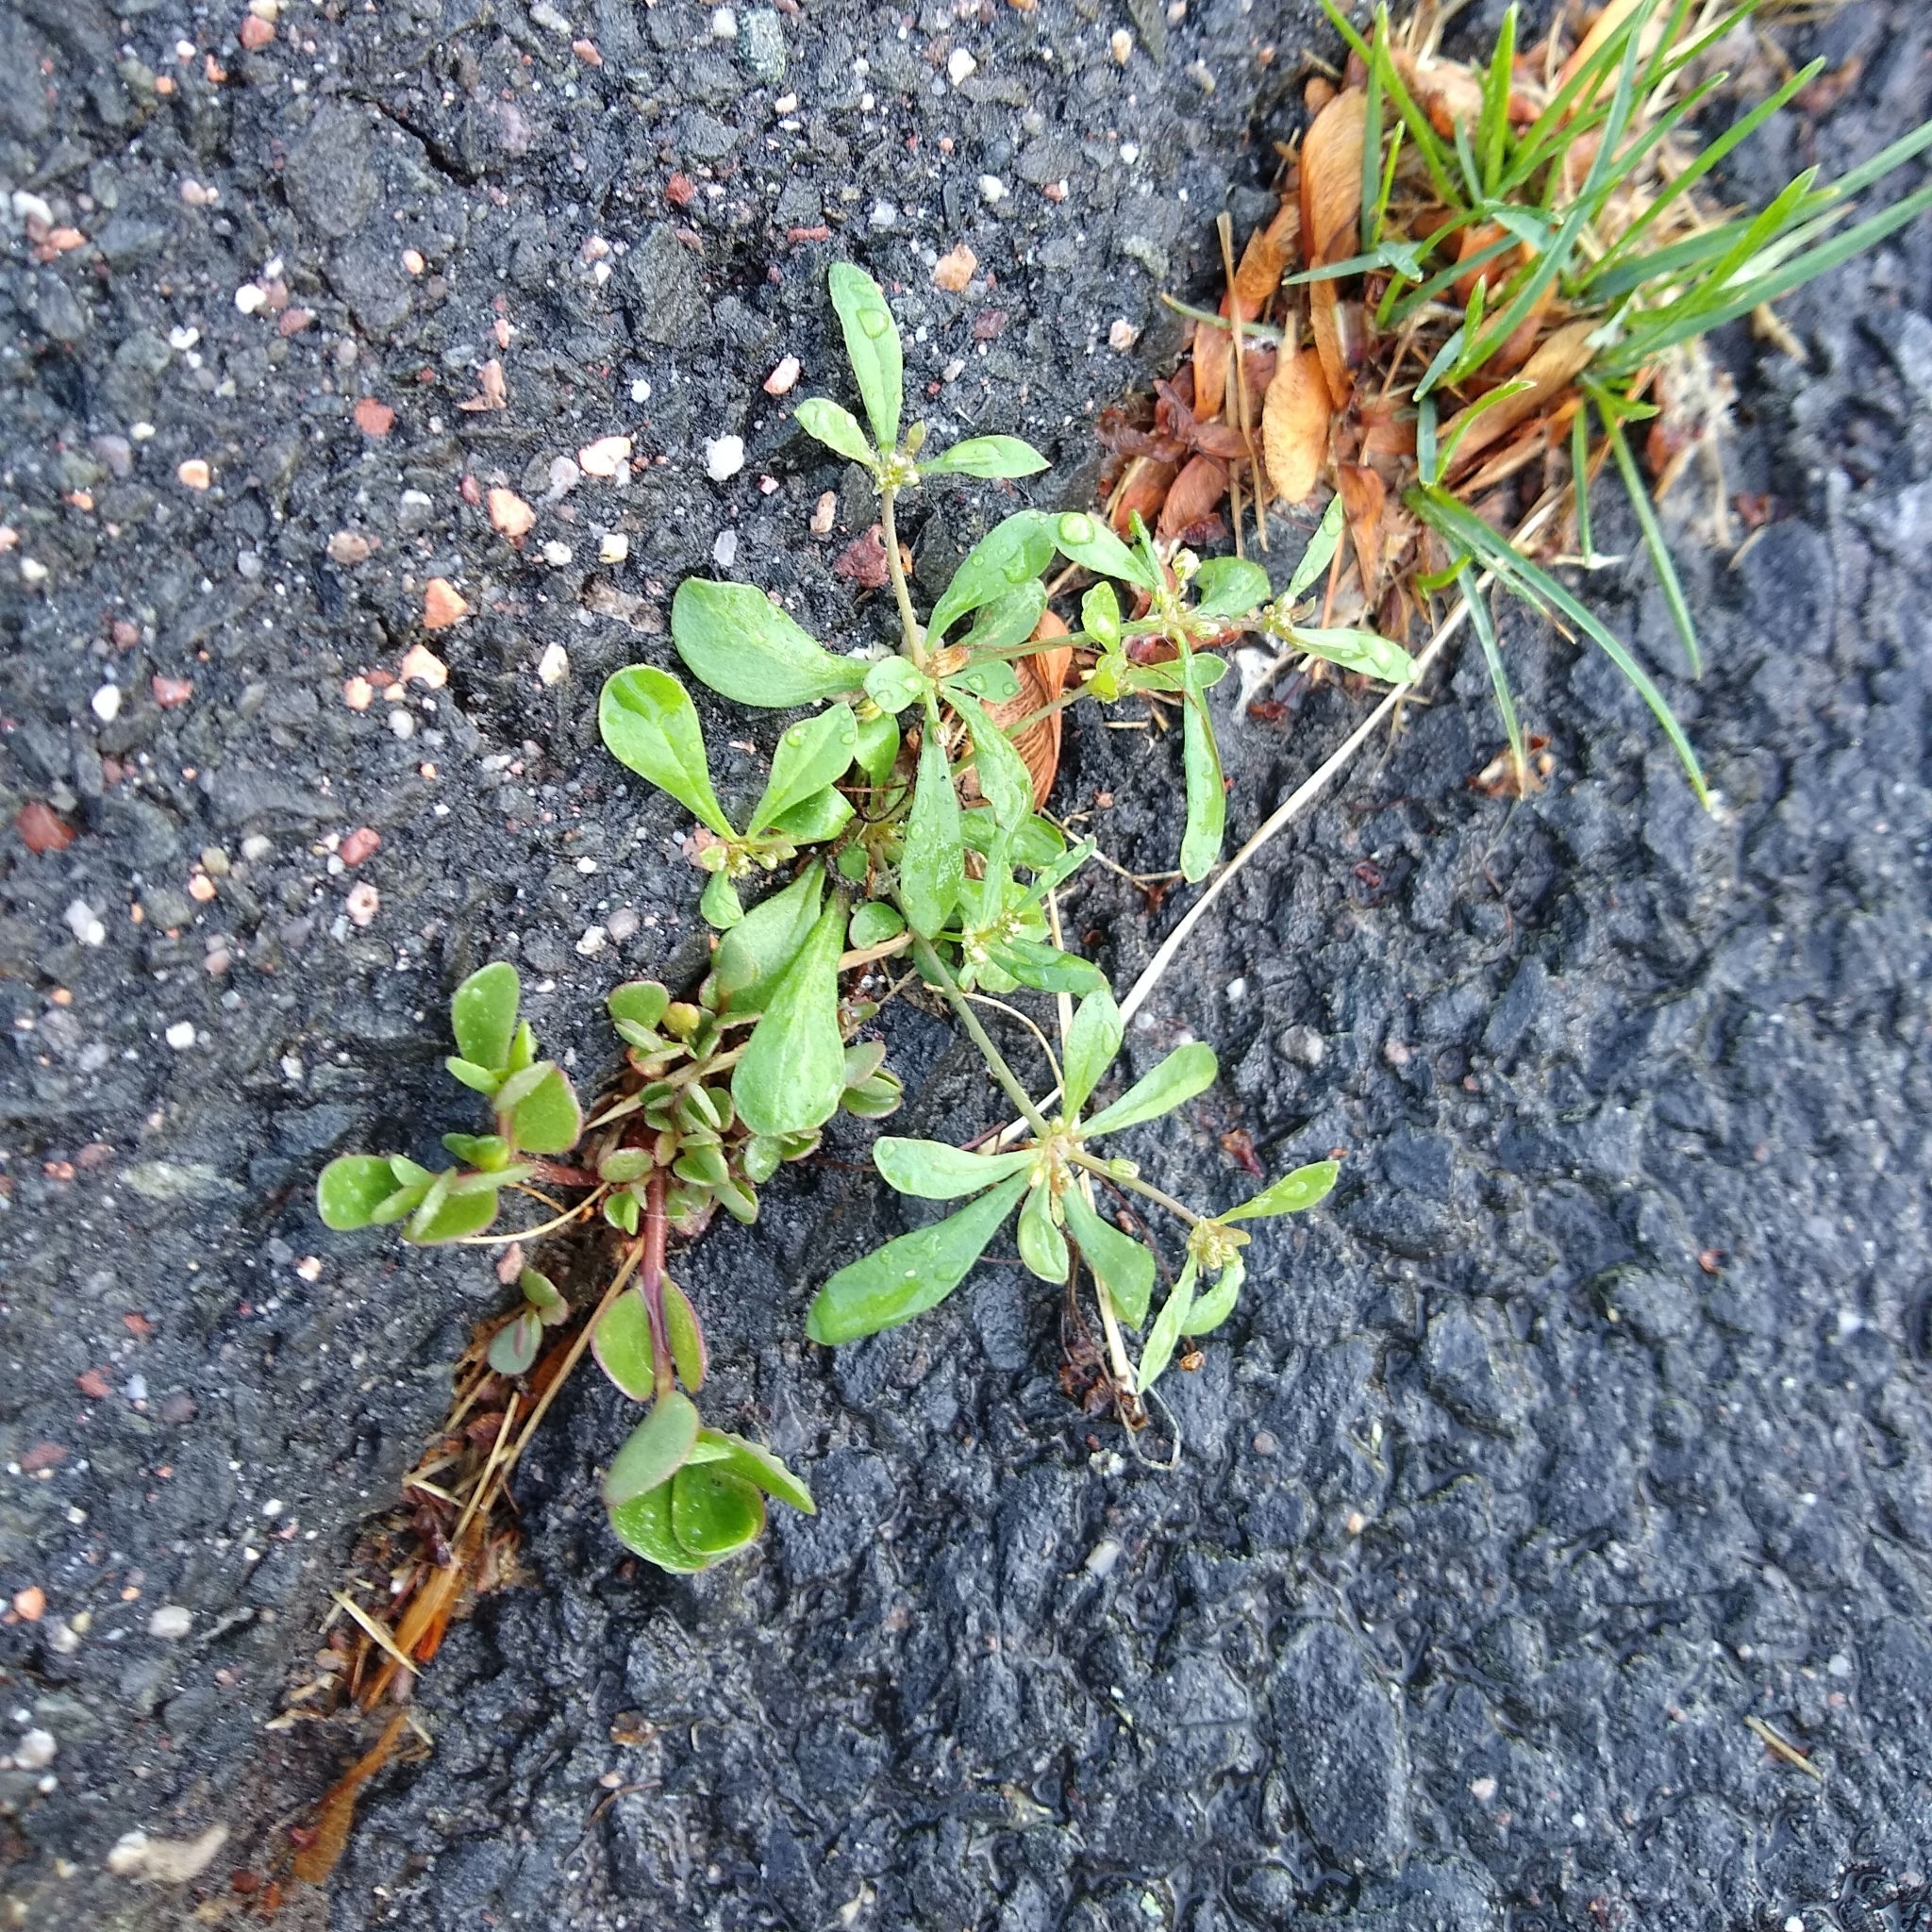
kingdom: Plantae
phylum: Tracheophyta
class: Magnoliopsida
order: Caryophyllales
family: Molluginaceae
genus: Mollugo
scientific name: Mollugo verticillata
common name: Green carpetweed
